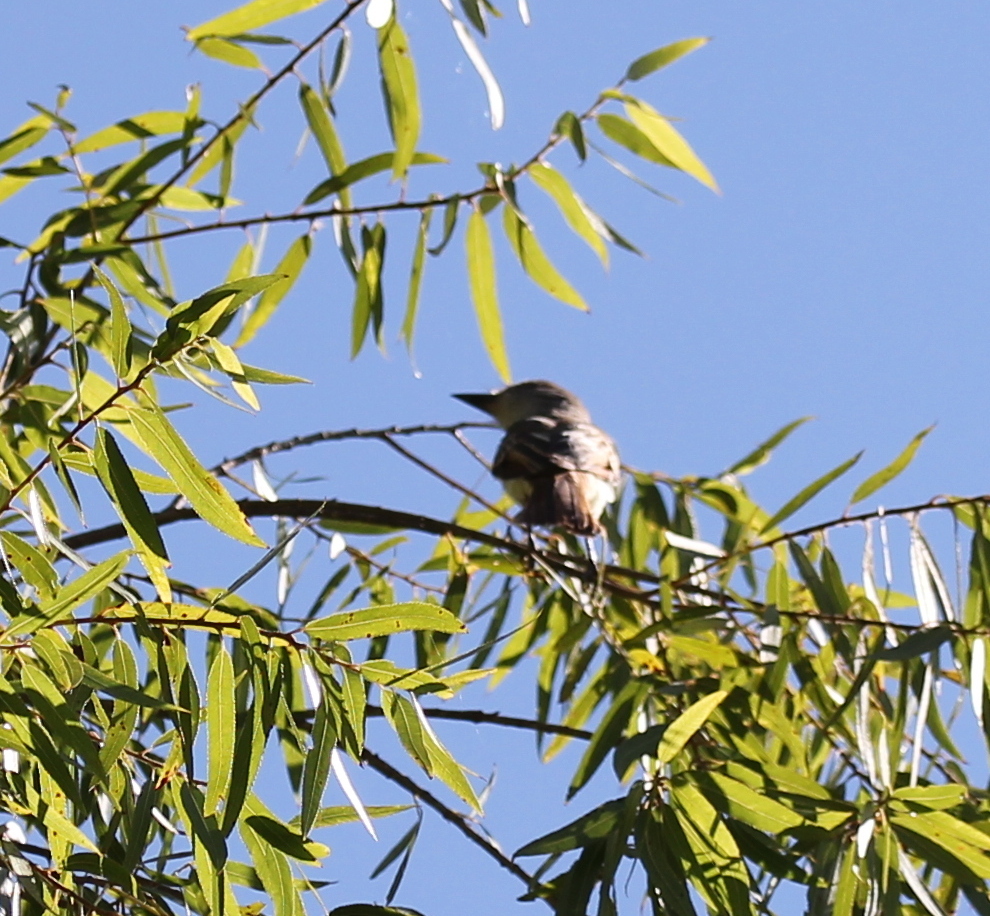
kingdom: Animalia
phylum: Chordata
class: Aves
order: Passeriformes
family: Tyrannidae
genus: Myiarchus
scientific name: Myiarchus cinerascens
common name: Ash-throated flycatcher
